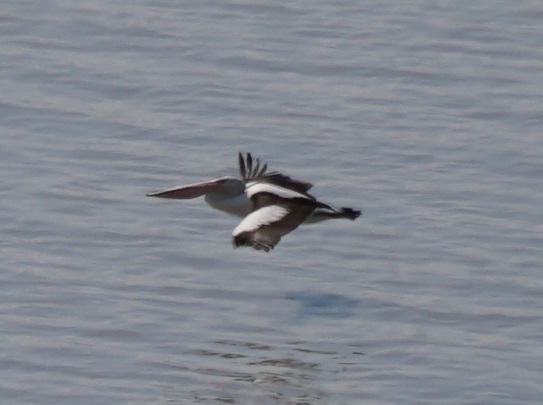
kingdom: Animalia
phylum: Chordata
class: Aves
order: Pelecaniformes
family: Pelecanidae
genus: Pelecanus
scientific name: Pelecanus conspicillatus
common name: Australian pelican
